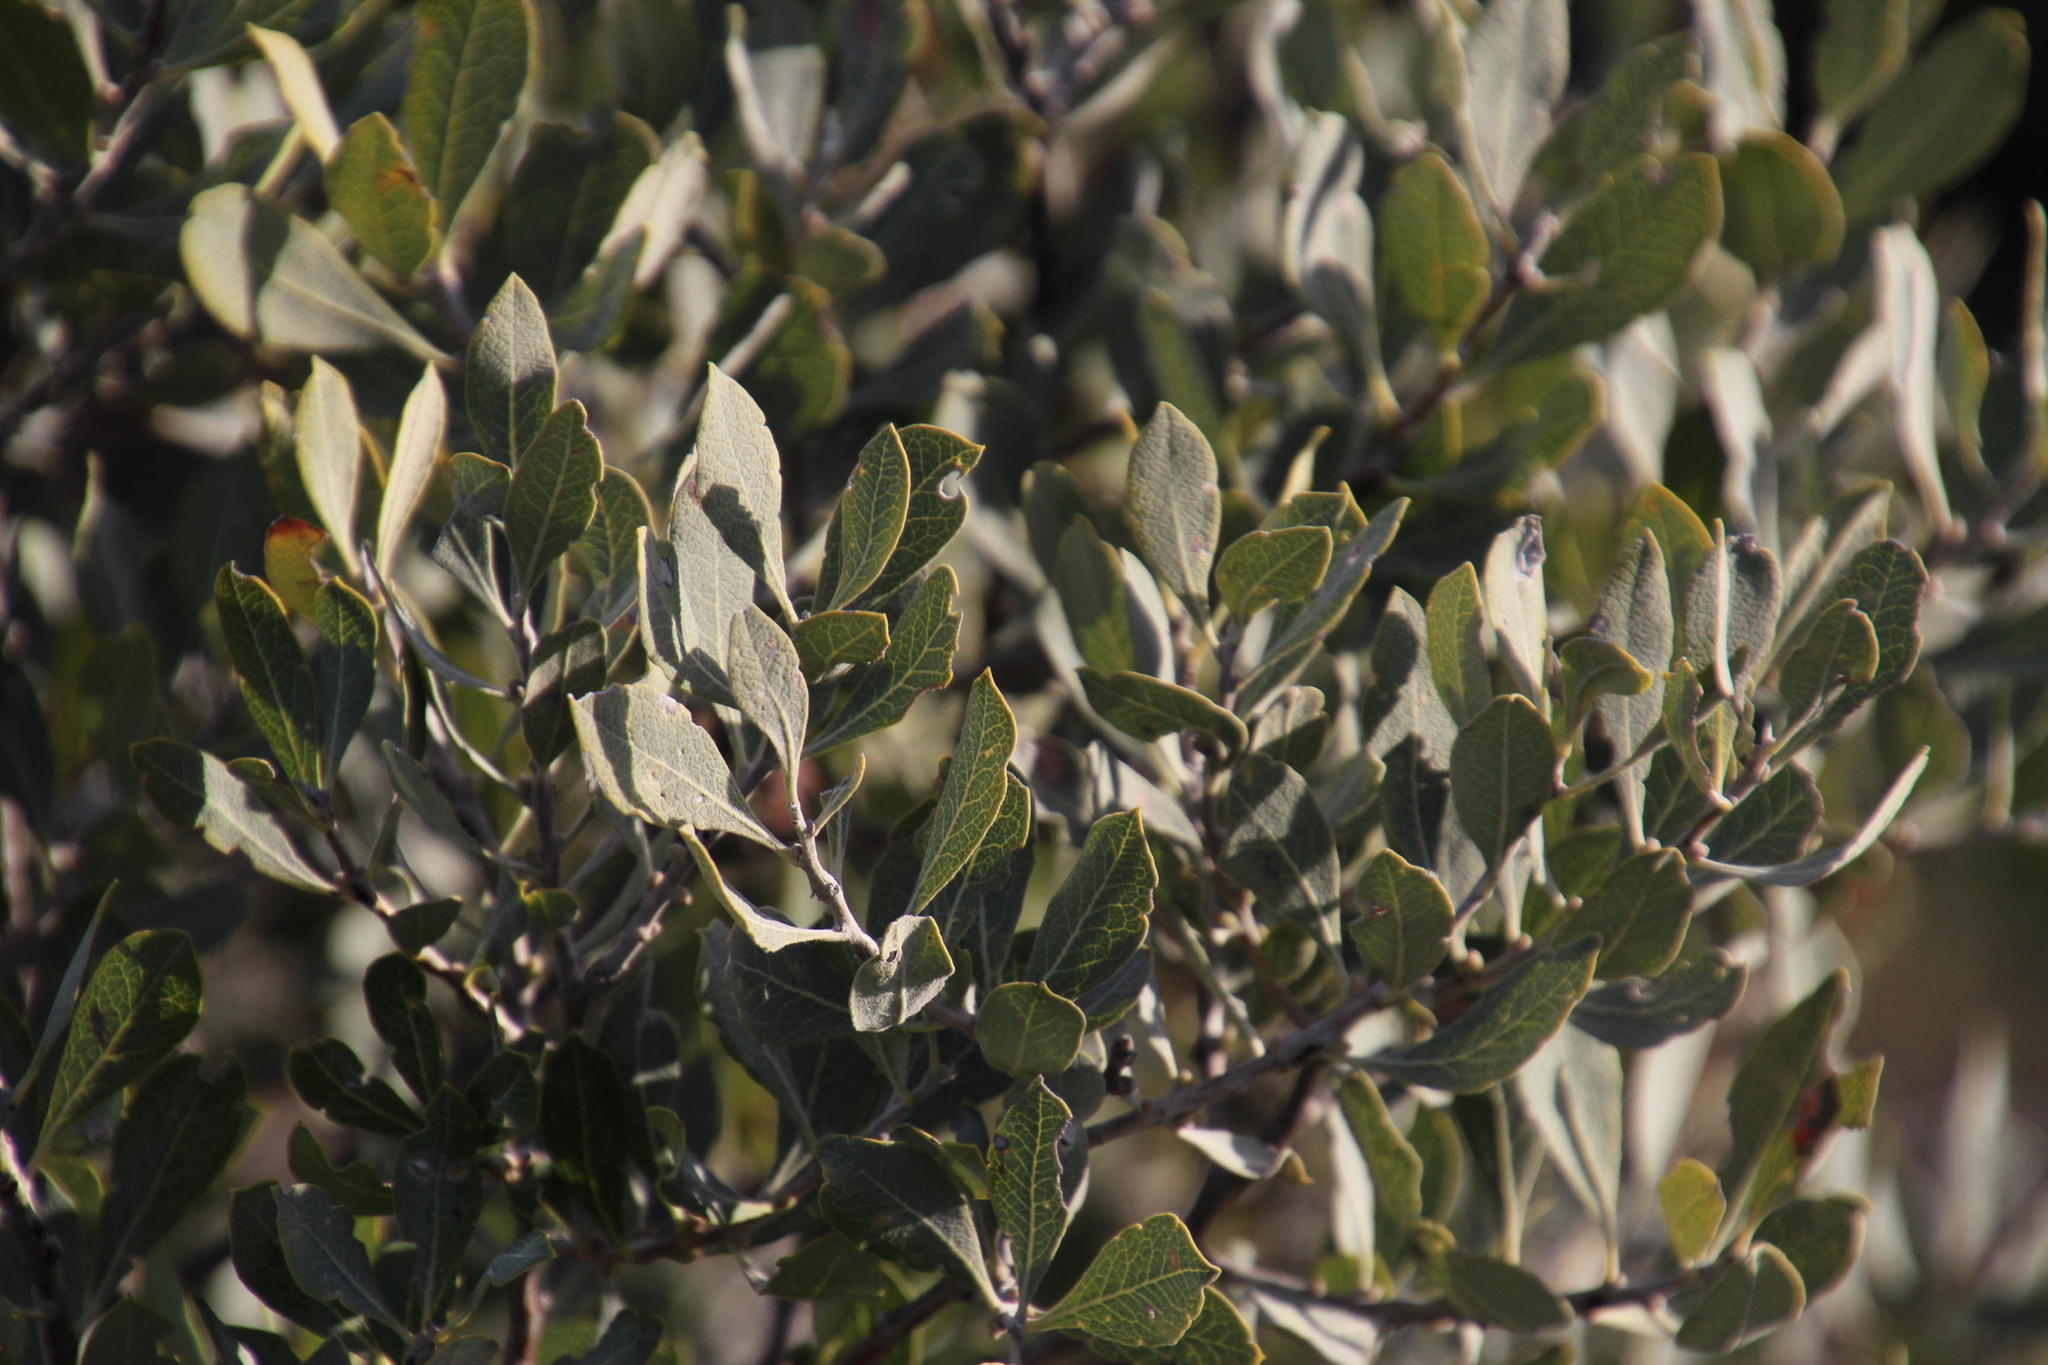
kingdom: Plantae
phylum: Tracheophyta
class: Magnoliopsida
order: Ericales
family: Ebenaceae
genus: Euclea
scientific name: Euclea tomentosa
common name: Honey guarri
